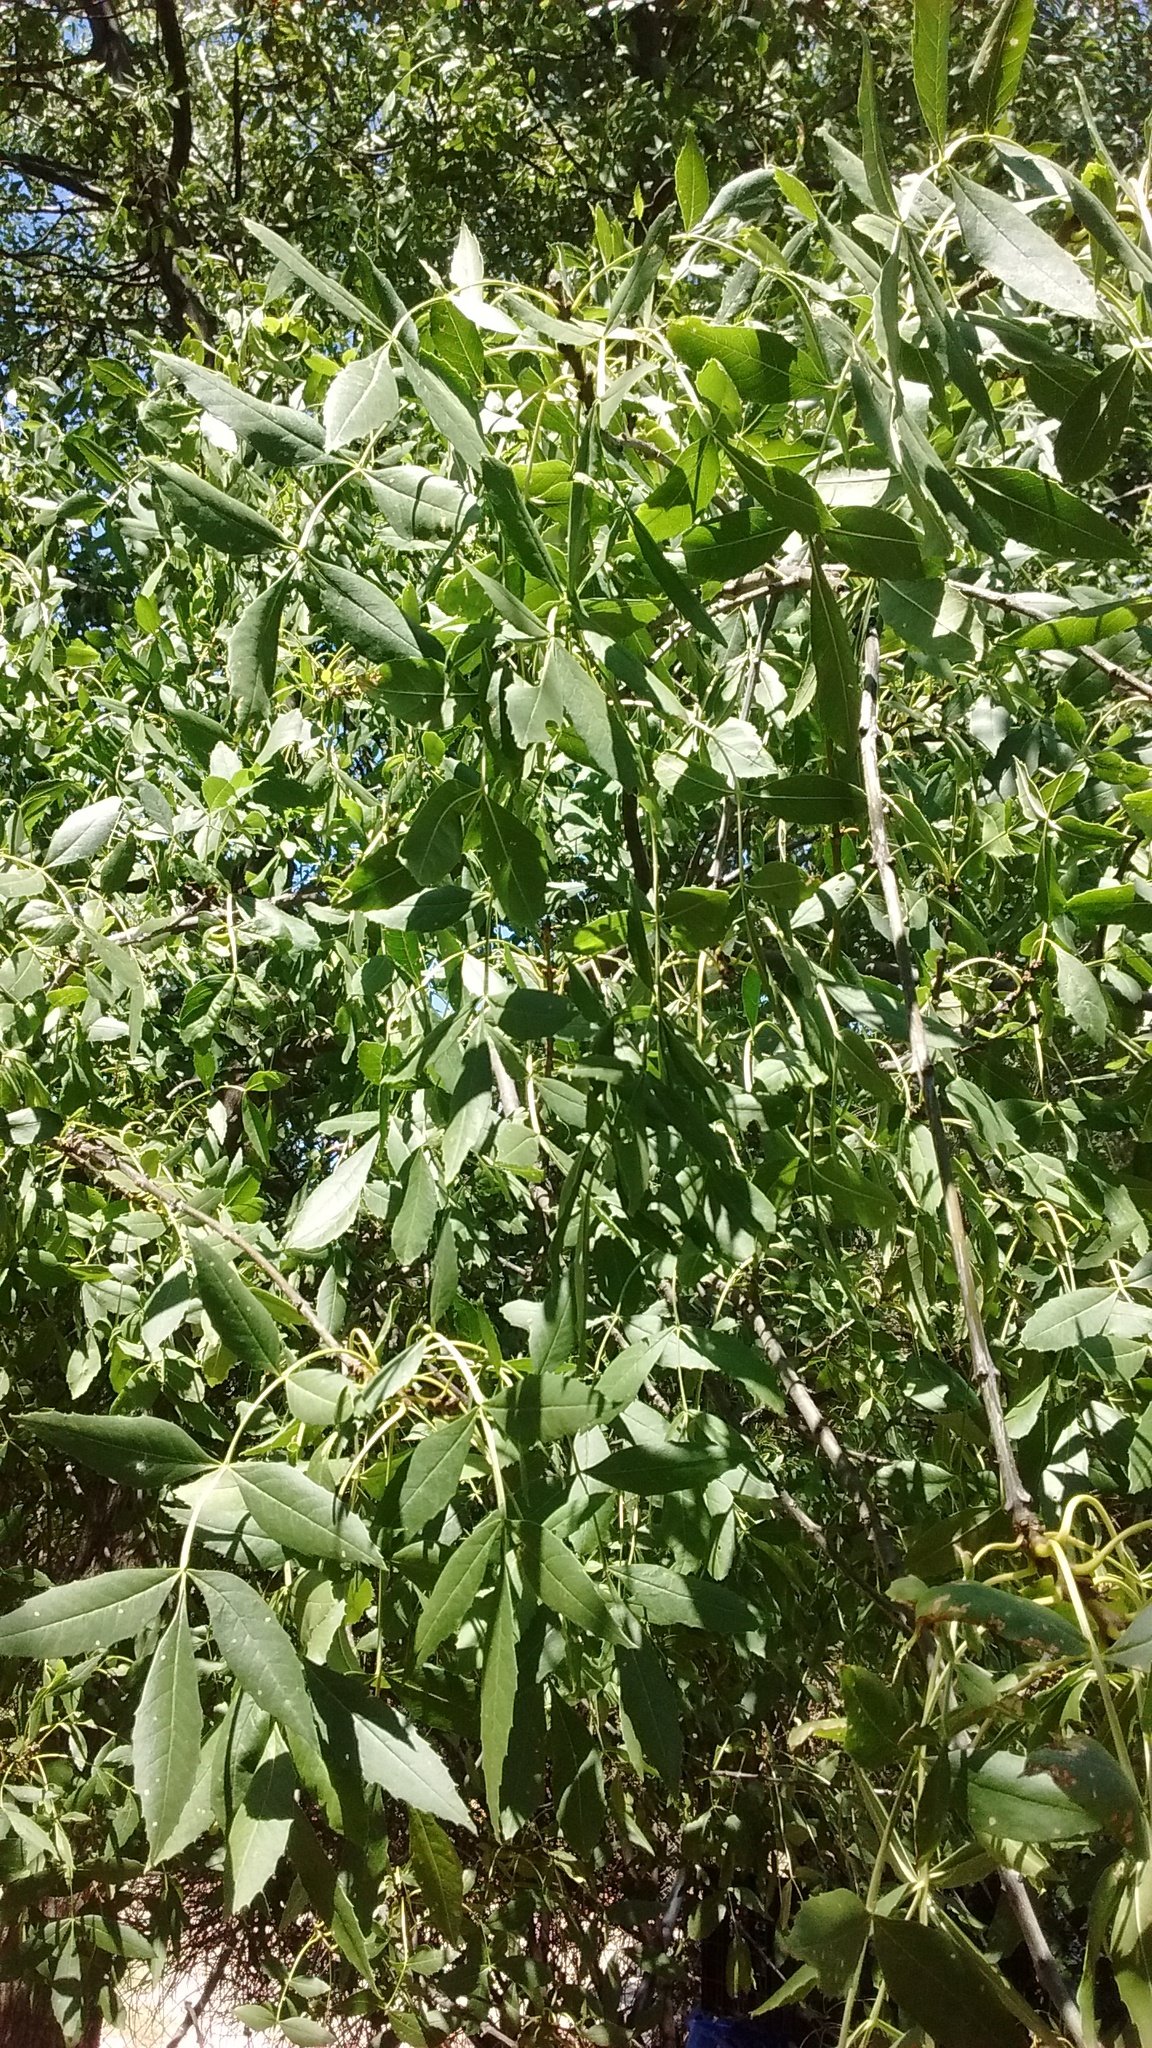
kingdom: Plantae
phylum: Tracheophyta
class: Magnoliopsida
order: Lamiales
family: Oleaceae
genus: Fraxinus
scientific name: Fraxinus angustifolia
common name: Narrow-leafed ash
